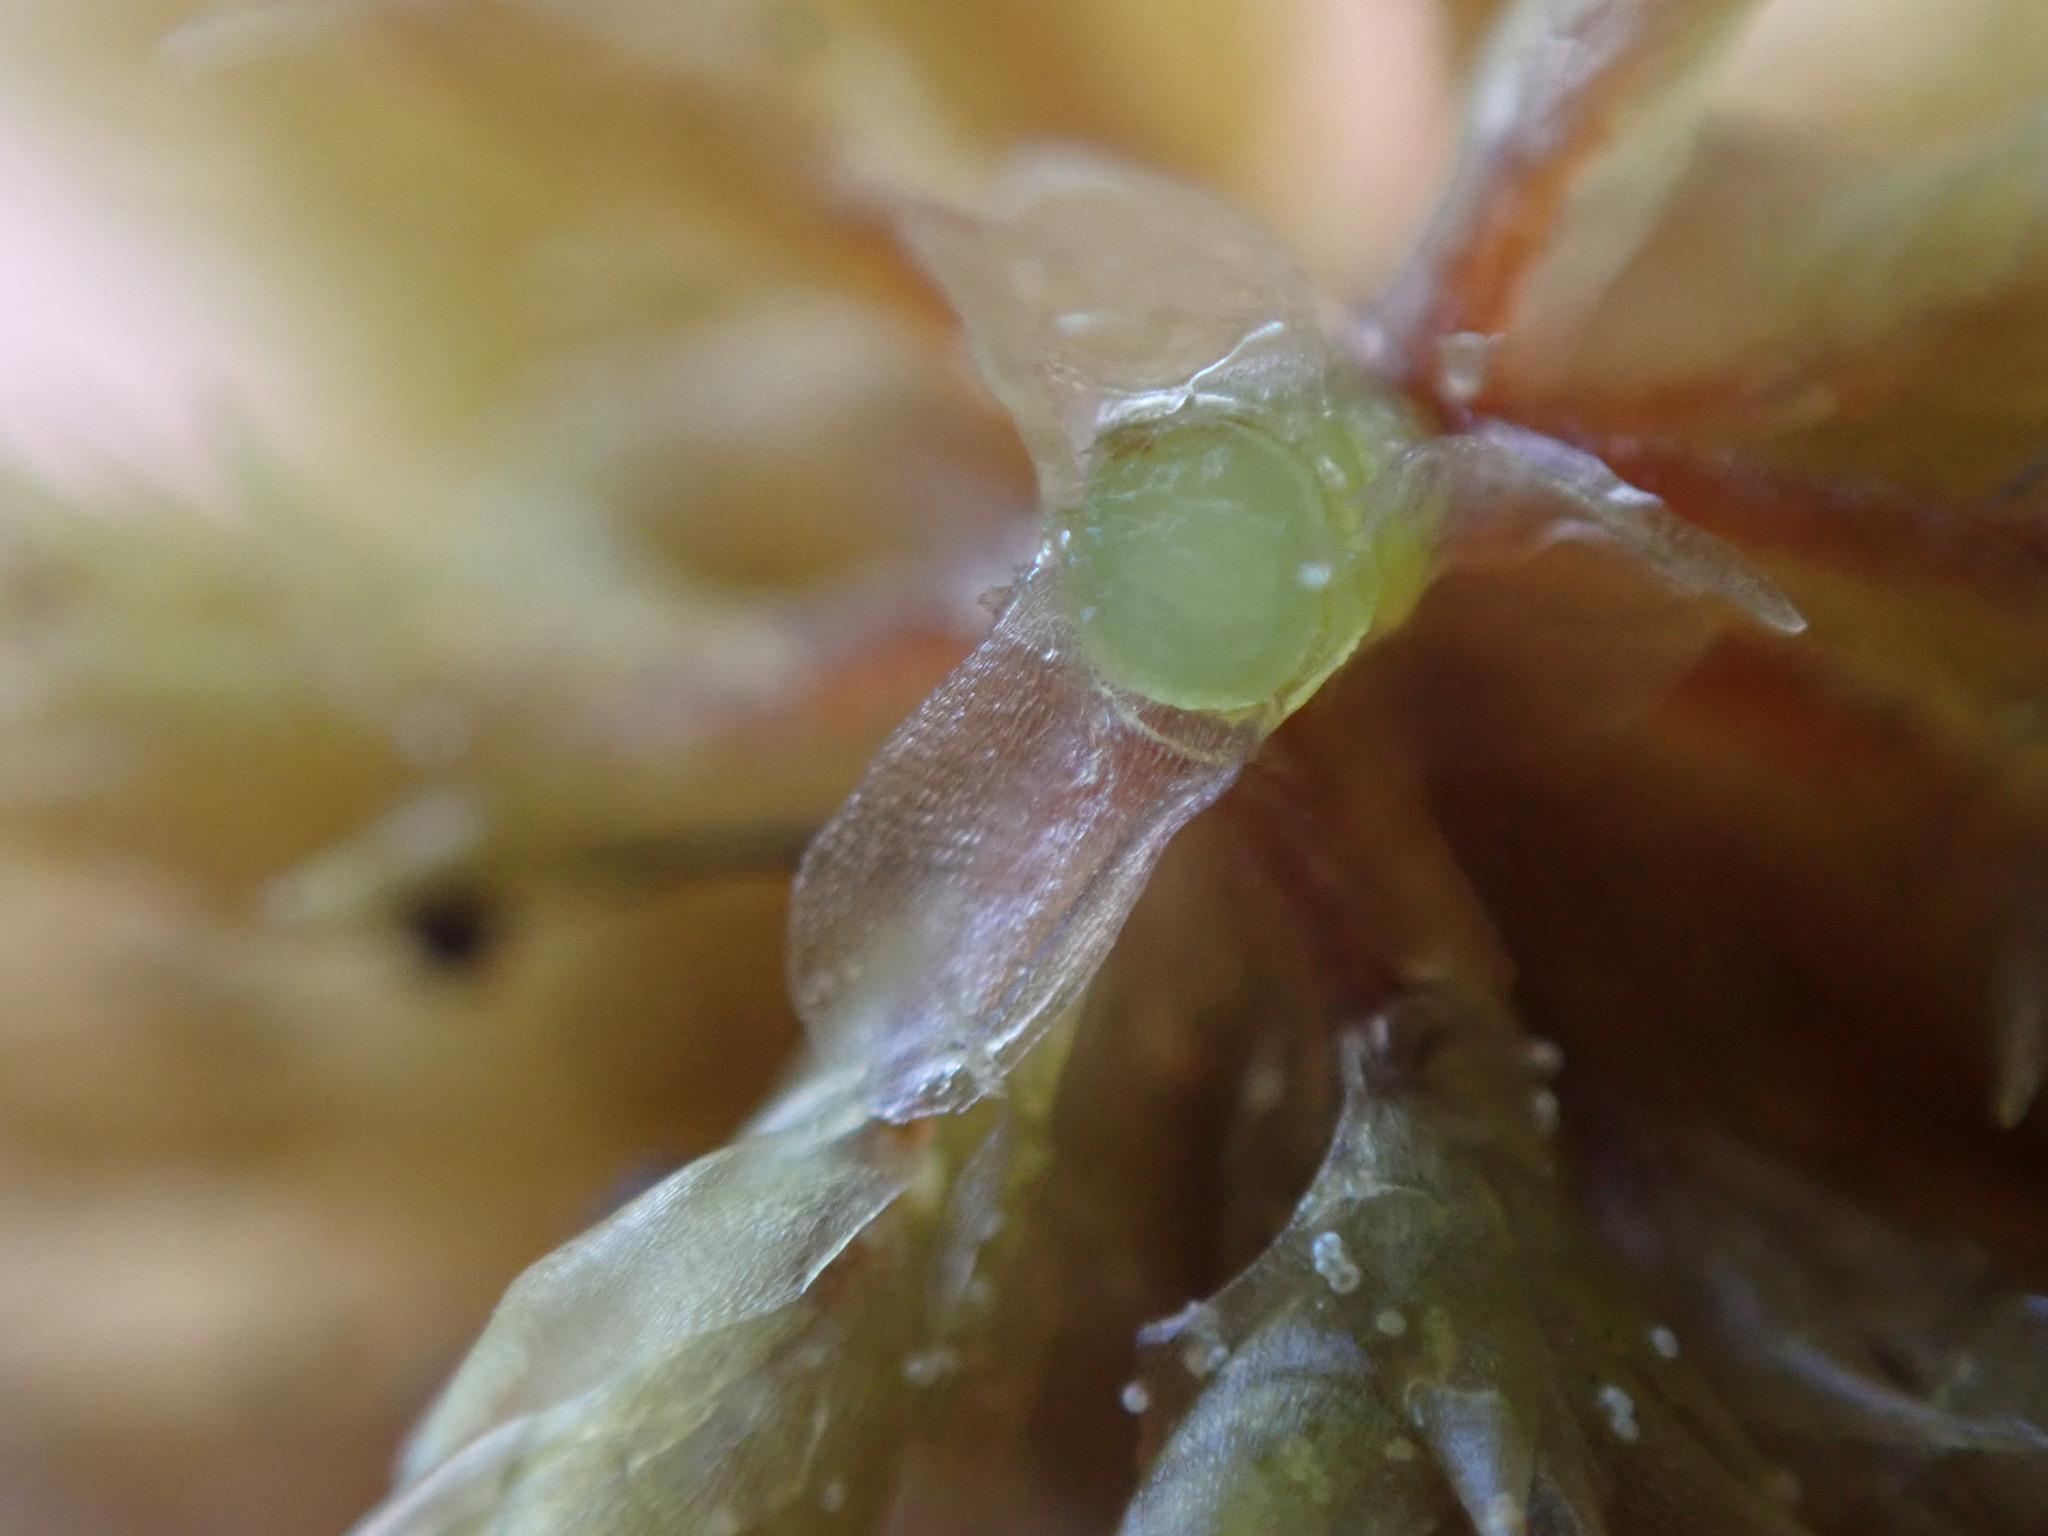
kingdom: Plantae
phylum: Bryophyta
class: Sphagnopsida
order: Sphagnales
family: Sphagnaceae
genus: Sphagnum
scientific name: Sphagnum squarrosum
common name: Shaggy peat moss
